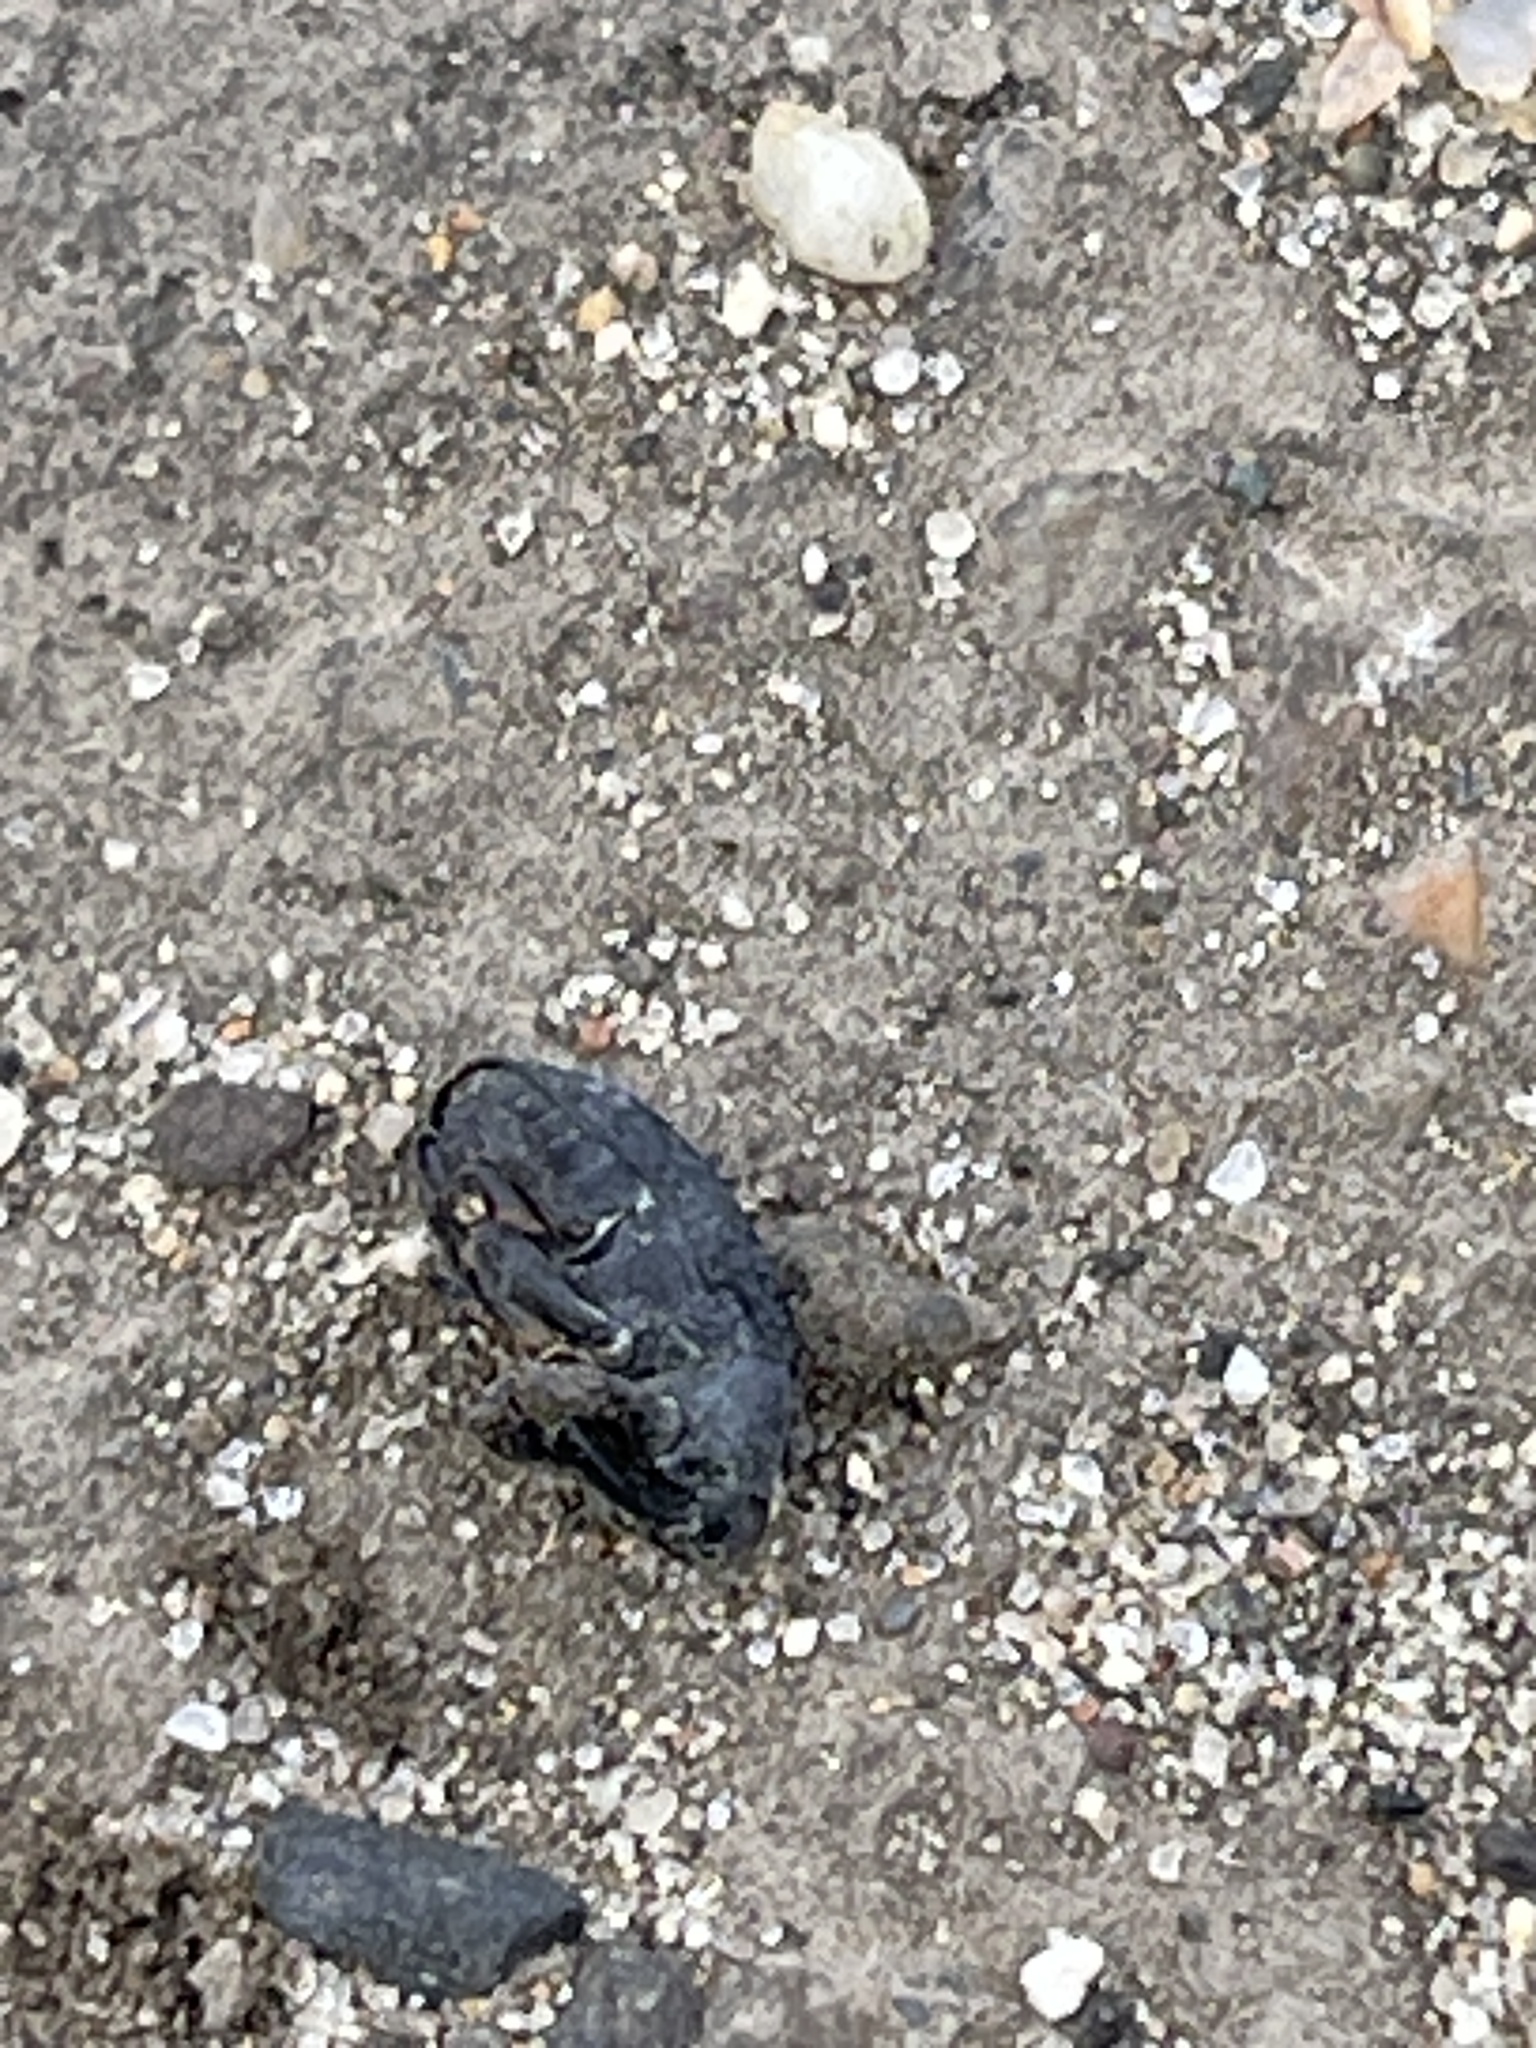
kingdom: Animalia
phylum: Arthropoda
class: Insecta
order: Coleoptera
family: Curculionidae
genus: Rhyssomatus
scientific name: Rhyssomatus lineaticollis
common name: Milkweed stem weevil
